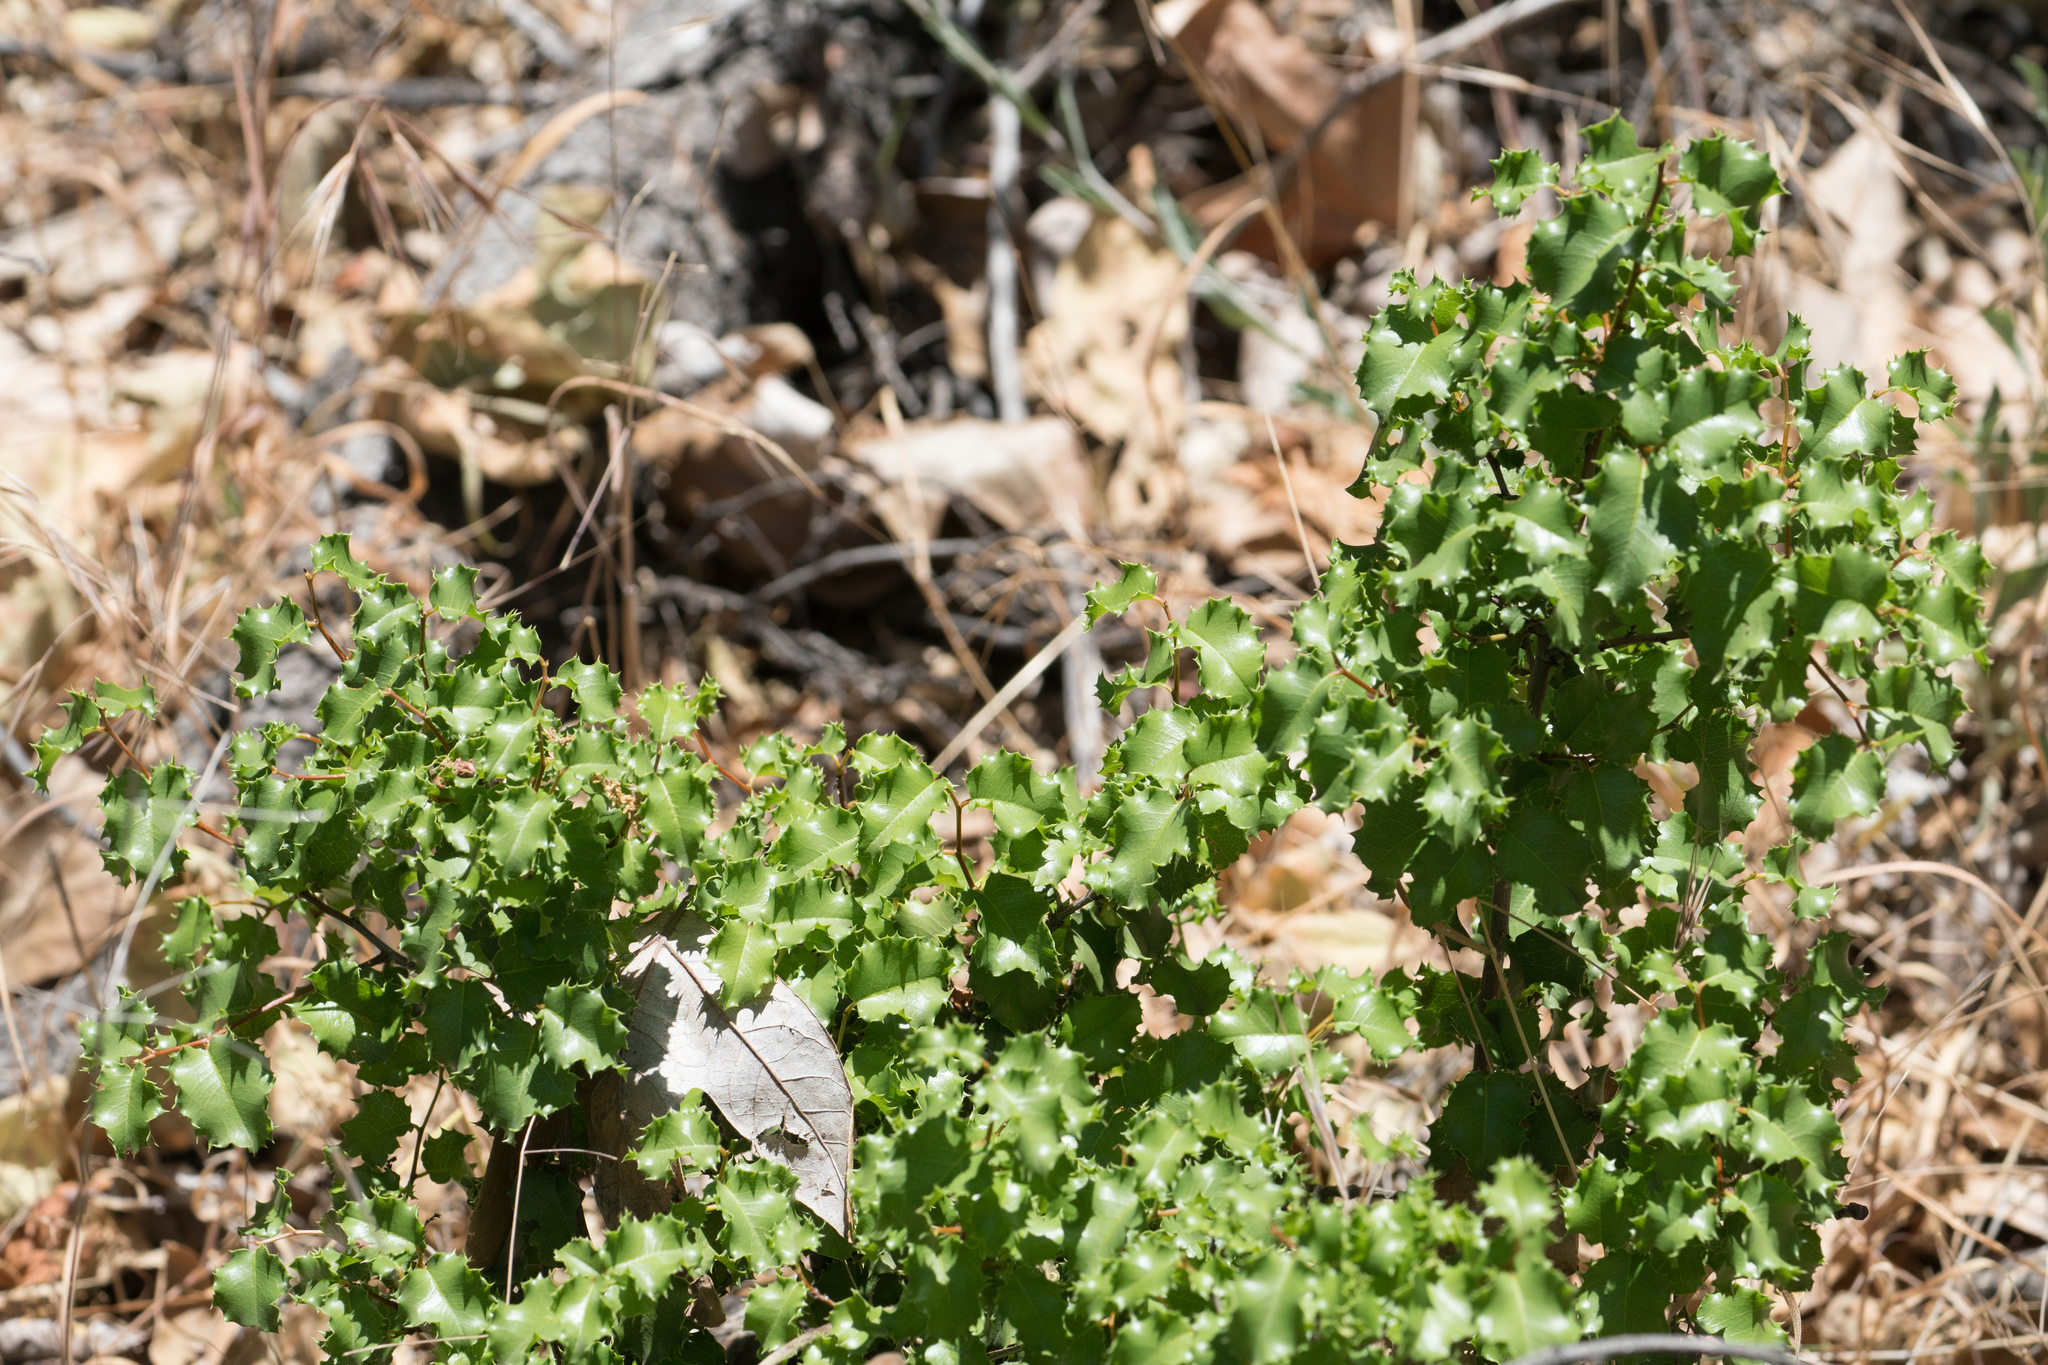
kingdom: Plantae
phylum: Tracheophyta
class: Magnoliopsida
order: Rosales
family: Rosaceae
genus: Prunus
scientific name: Prunus ilicifolia
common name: Hollyleaf cherry
